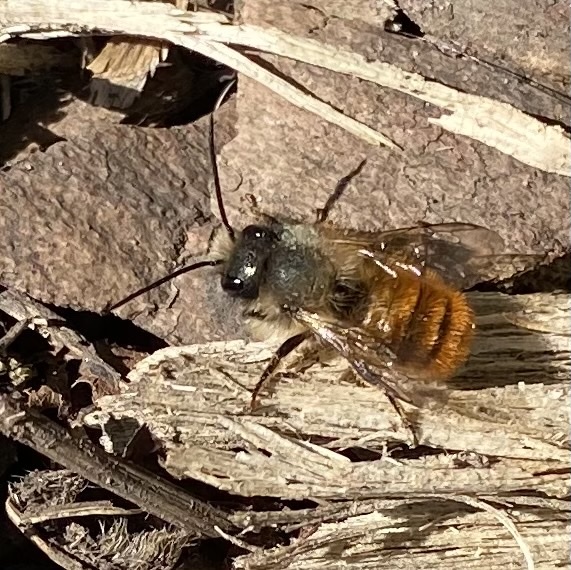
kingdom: Animalia
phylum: Arthropoda
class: Insecta
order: Hymenoptera
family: Megachilidae
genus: Osmia
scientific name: Osmia bicornis
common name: Red mason bee
